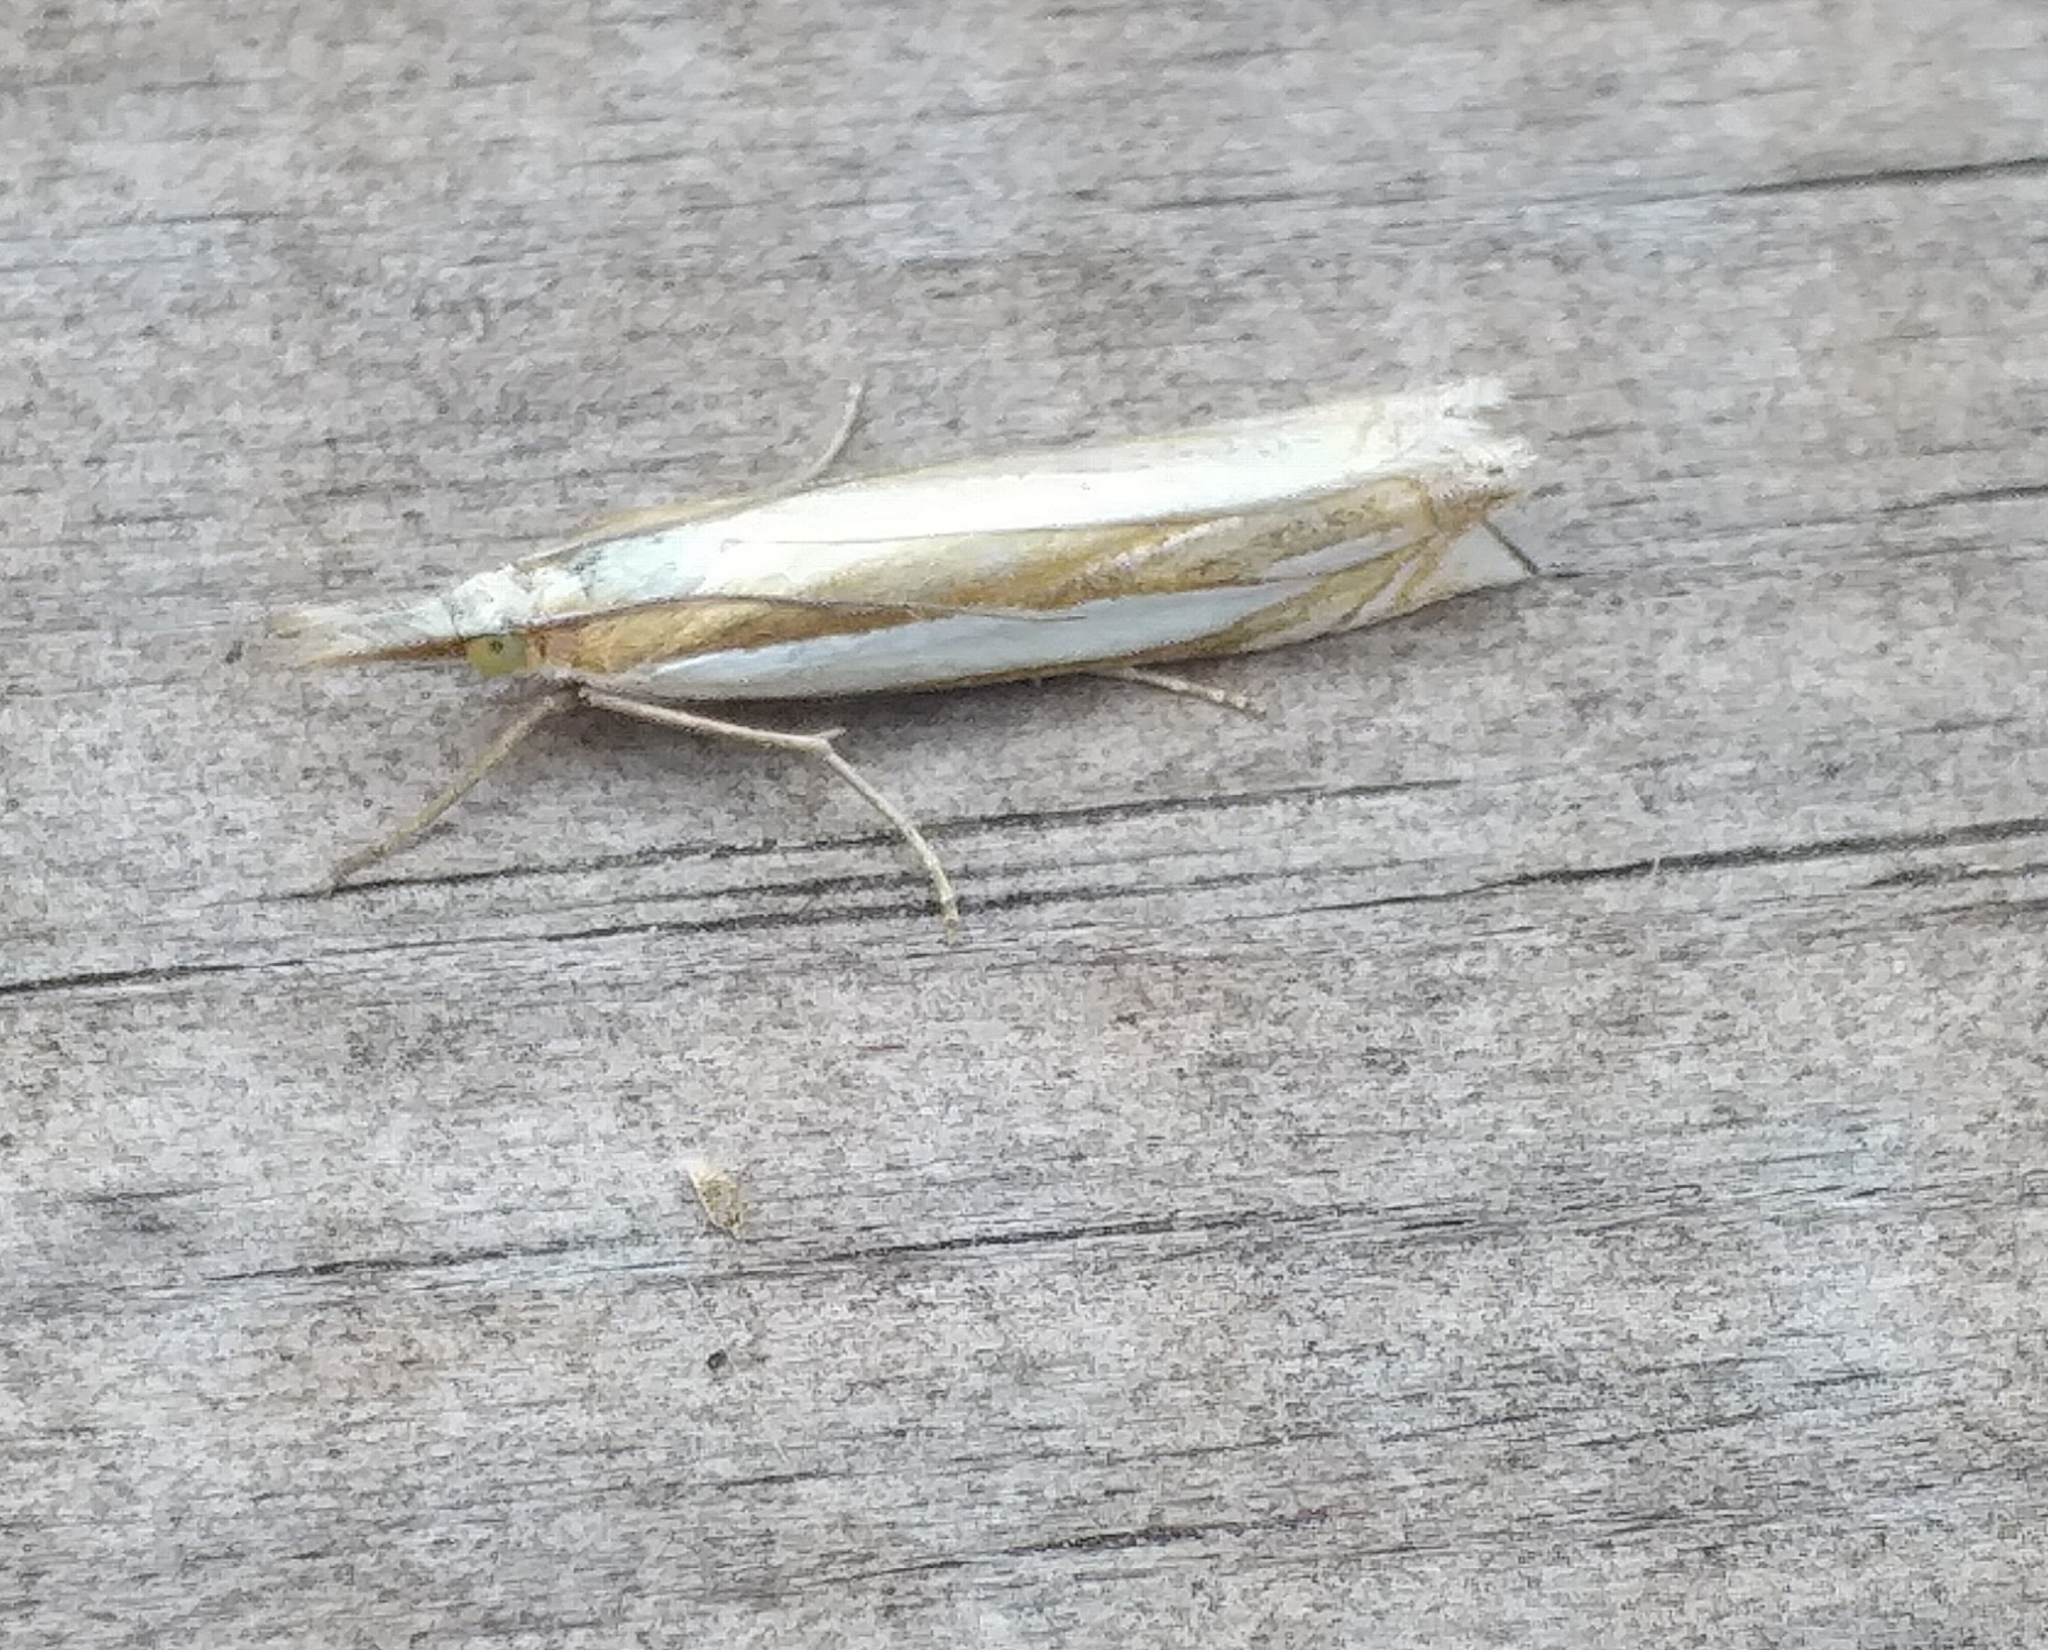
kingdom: Animalia
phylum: Arthropoda
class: Insecta
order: Lepidoptera
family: Crambidae
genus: Crambus
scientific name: Crambus pascuella
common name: Inlaid grass-veneer
